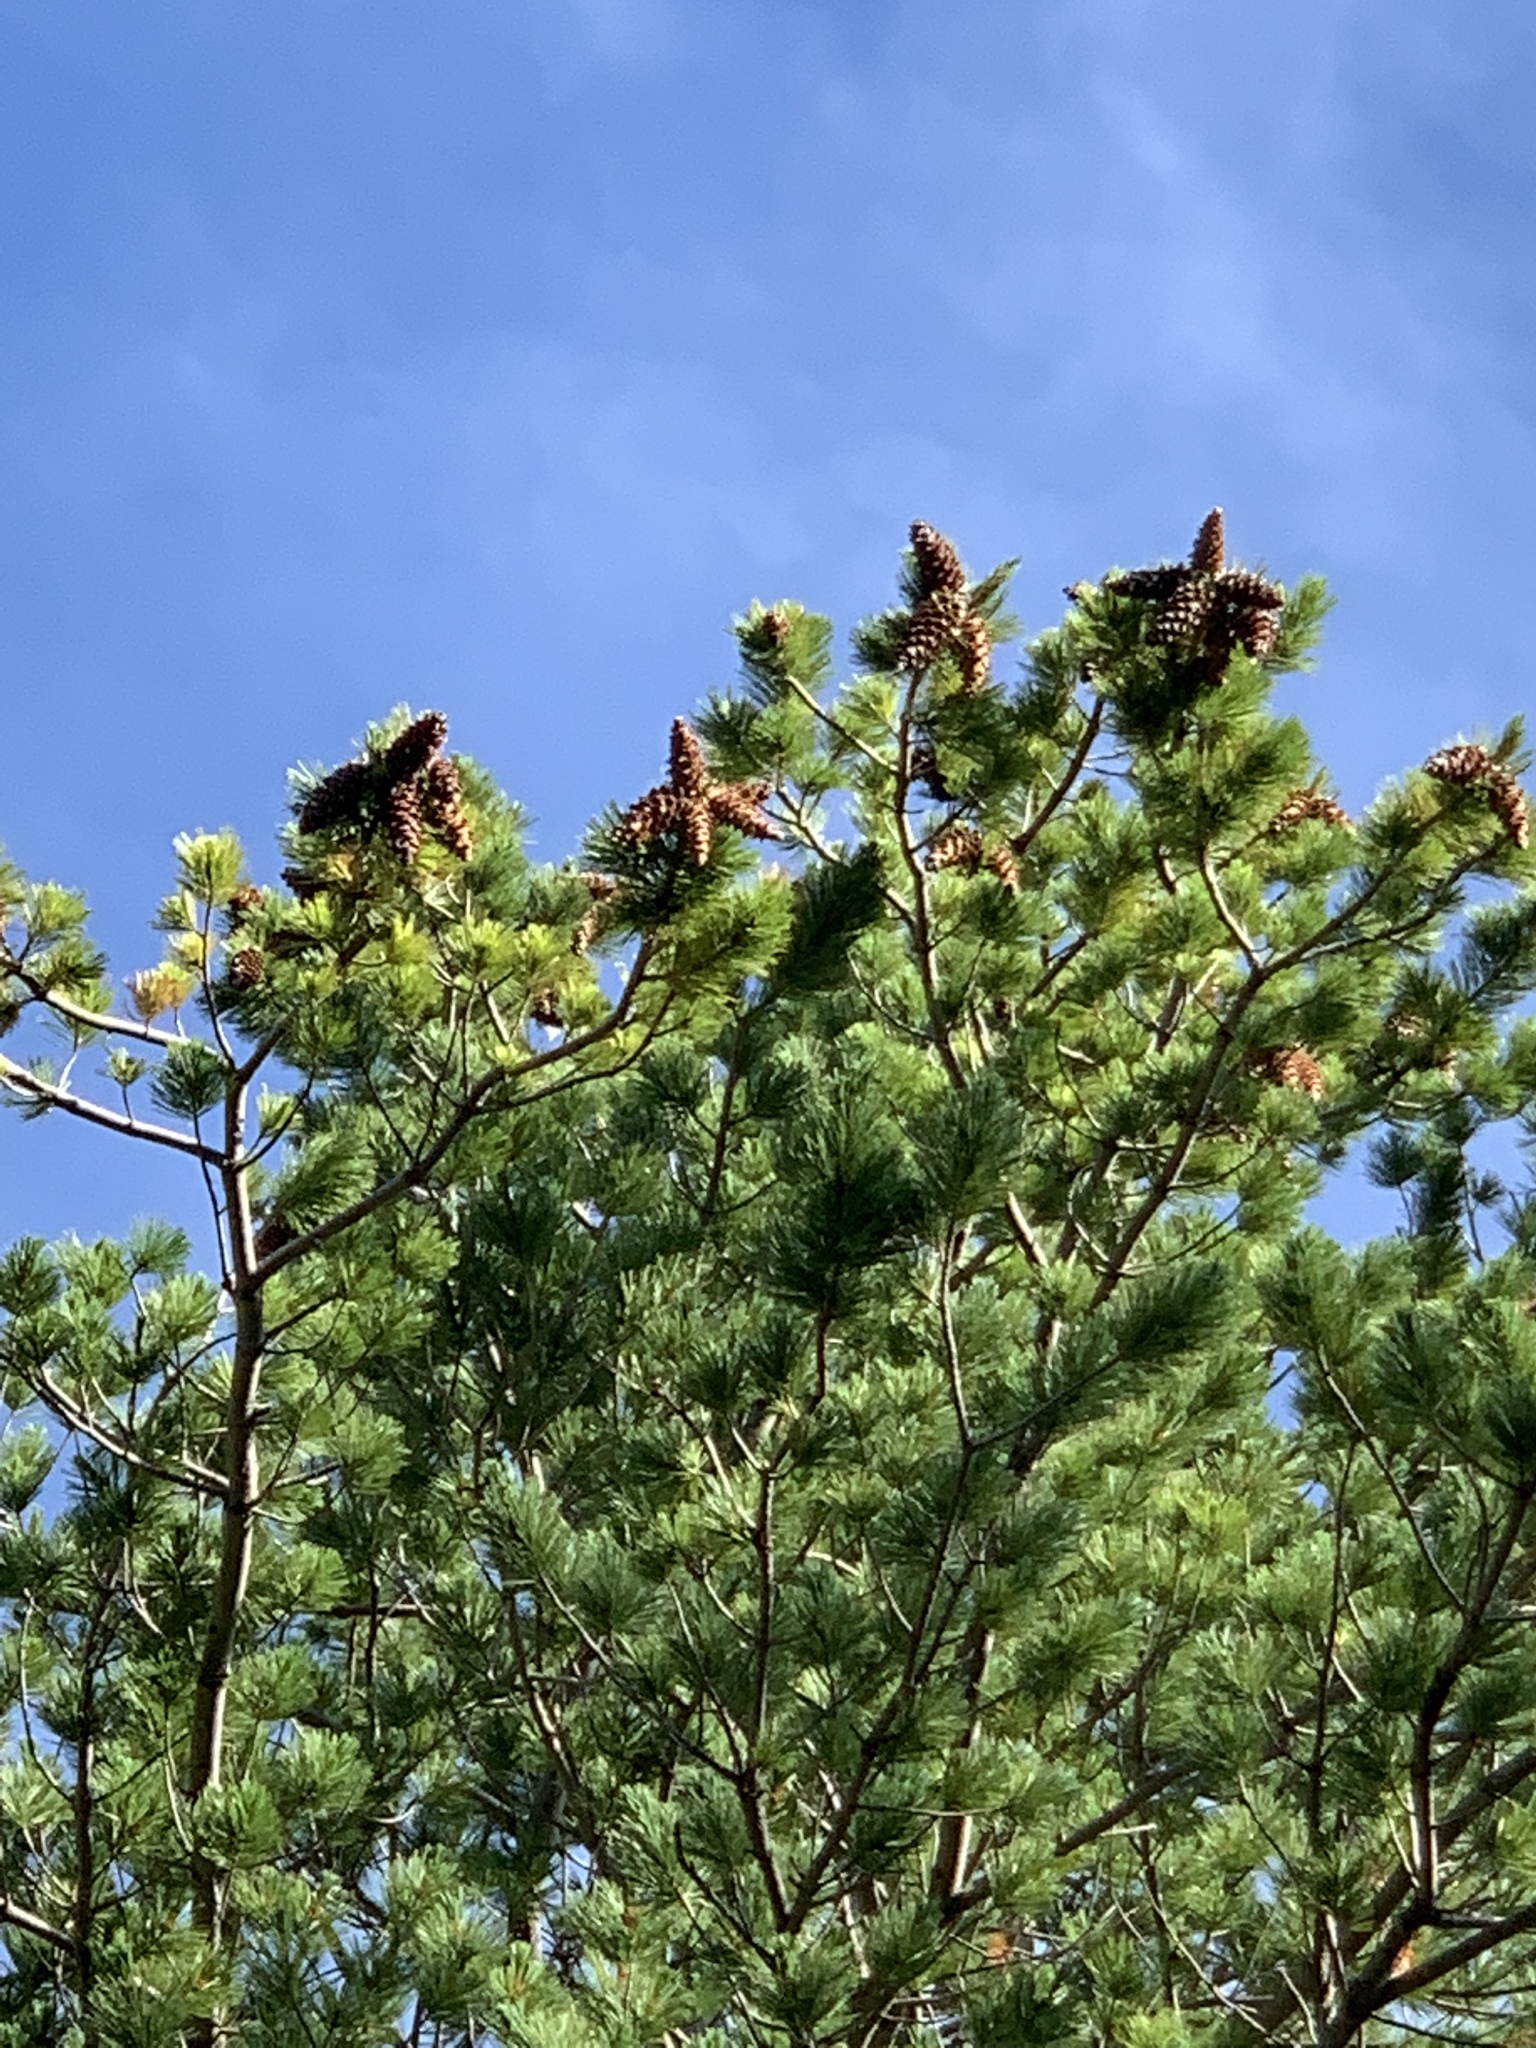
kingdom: Plantae
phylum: Tracheophyta
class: Pinopsida
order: Pinales
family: Pinaceae
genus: Pinus
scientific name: Pinus strobiformis
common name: Southwestern white pine
